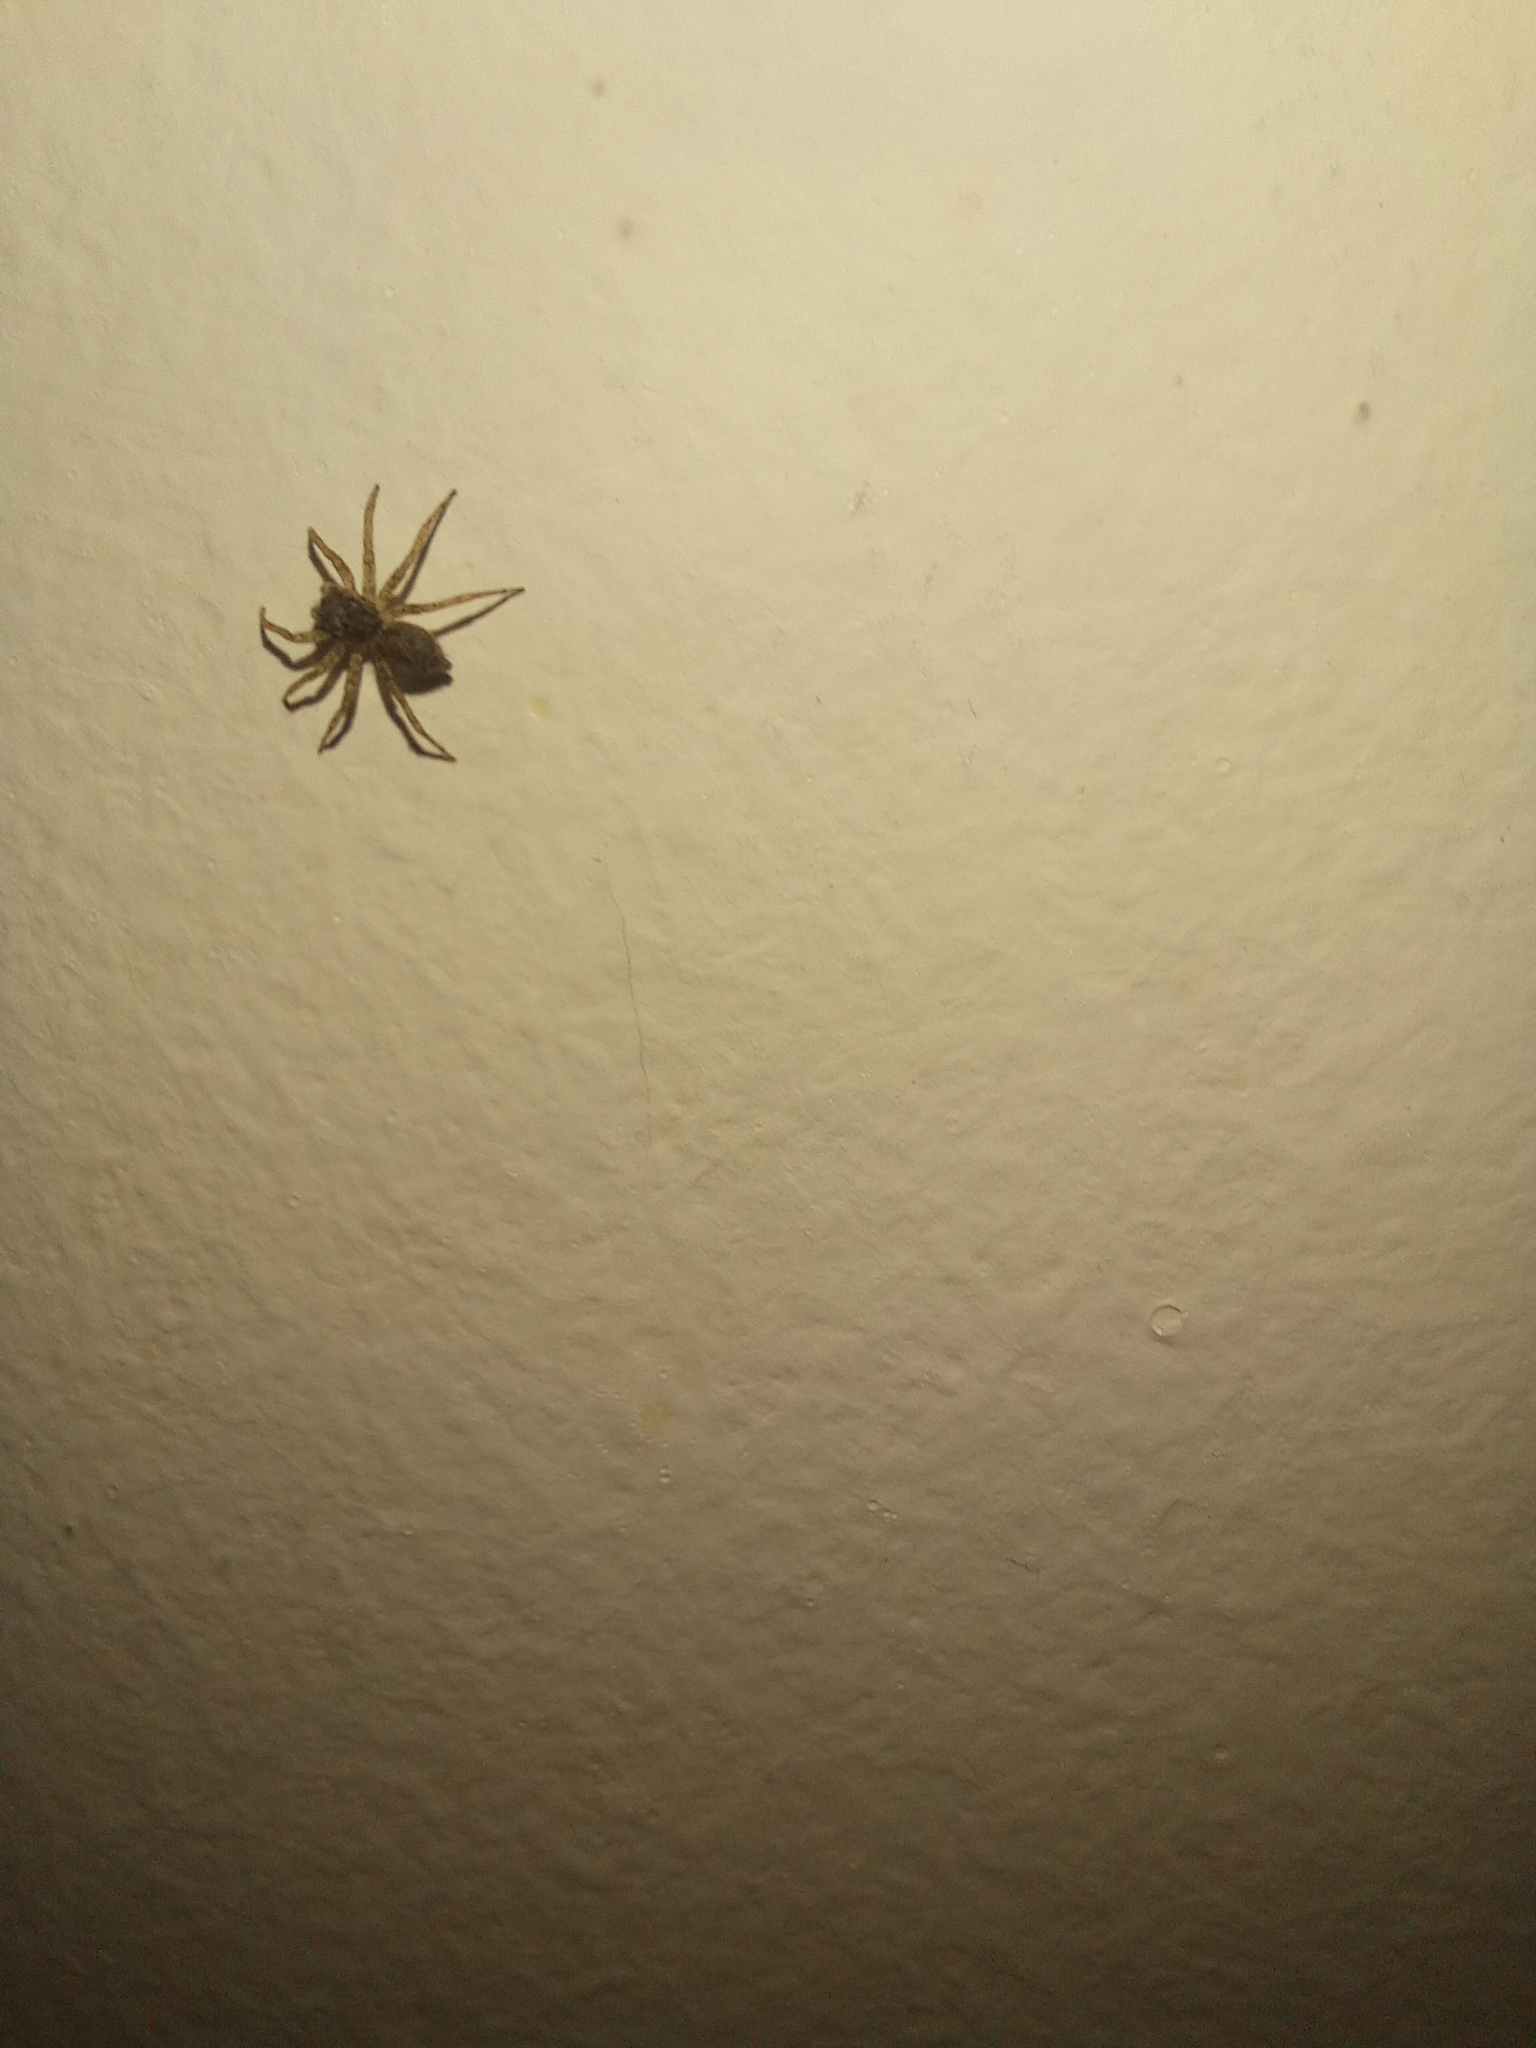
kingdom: Animalia
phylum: Arthropoda
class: Arachnida
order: Araneae
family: Salticidae
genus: Saitis
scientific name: Saitis variegatus
